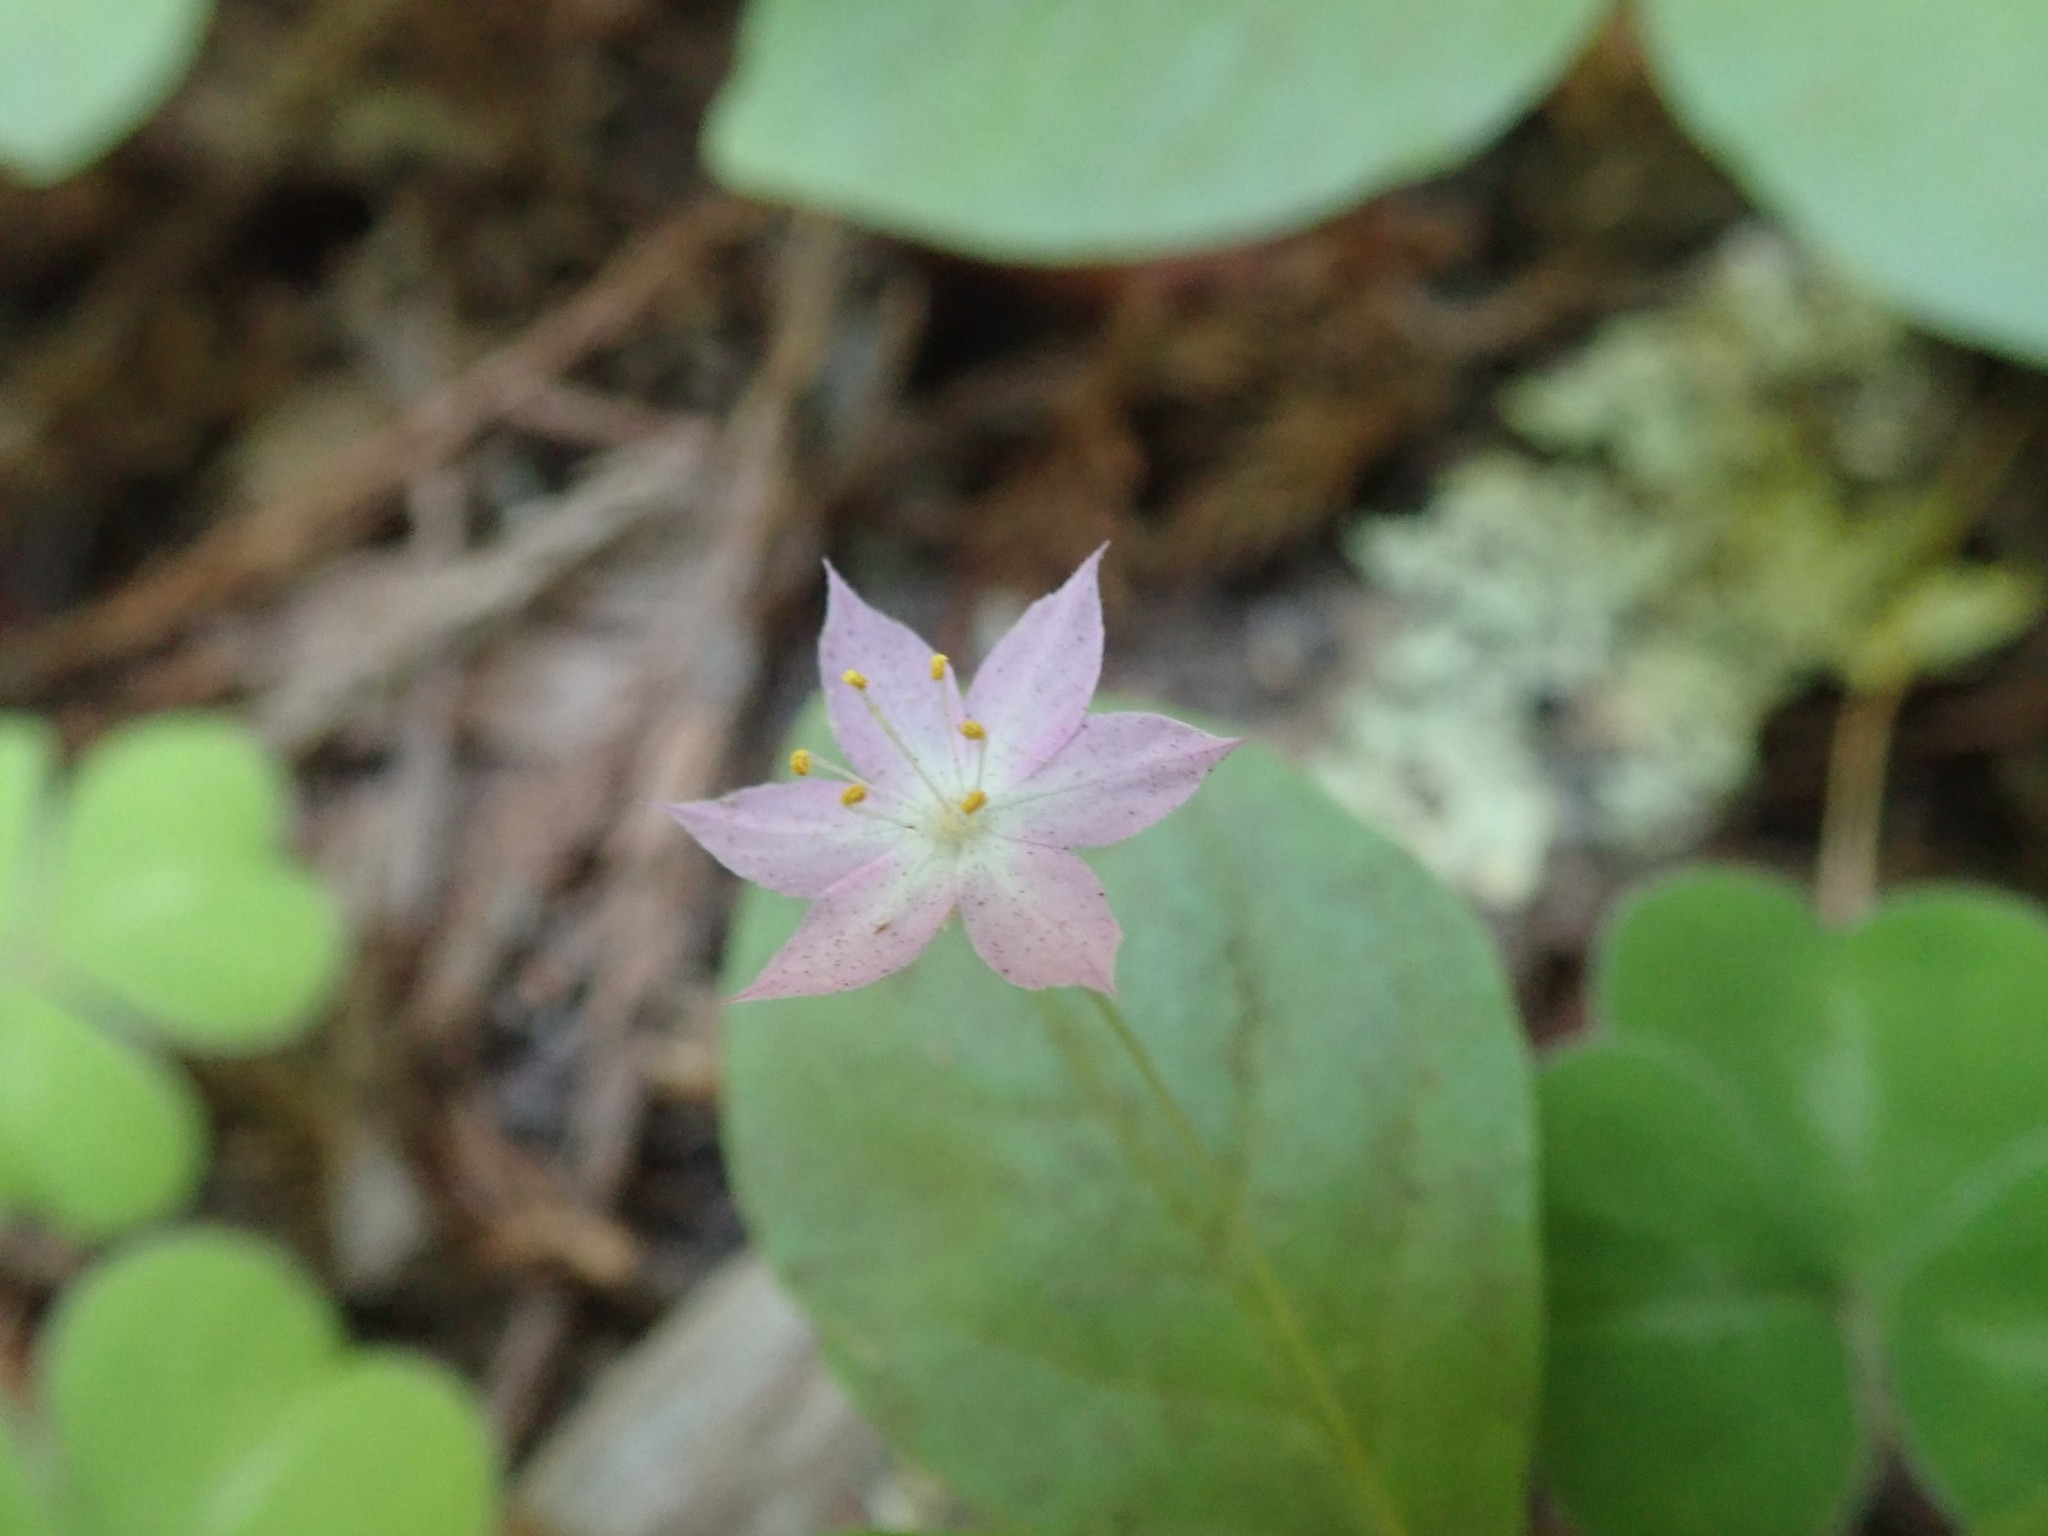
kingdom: Plantae
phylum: Tracheophyta
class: Magnoliopsida
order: Ericales
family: Primulaceae
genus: Lysimachia
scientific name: Lysimachia latifolia
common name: Pacific starflower
